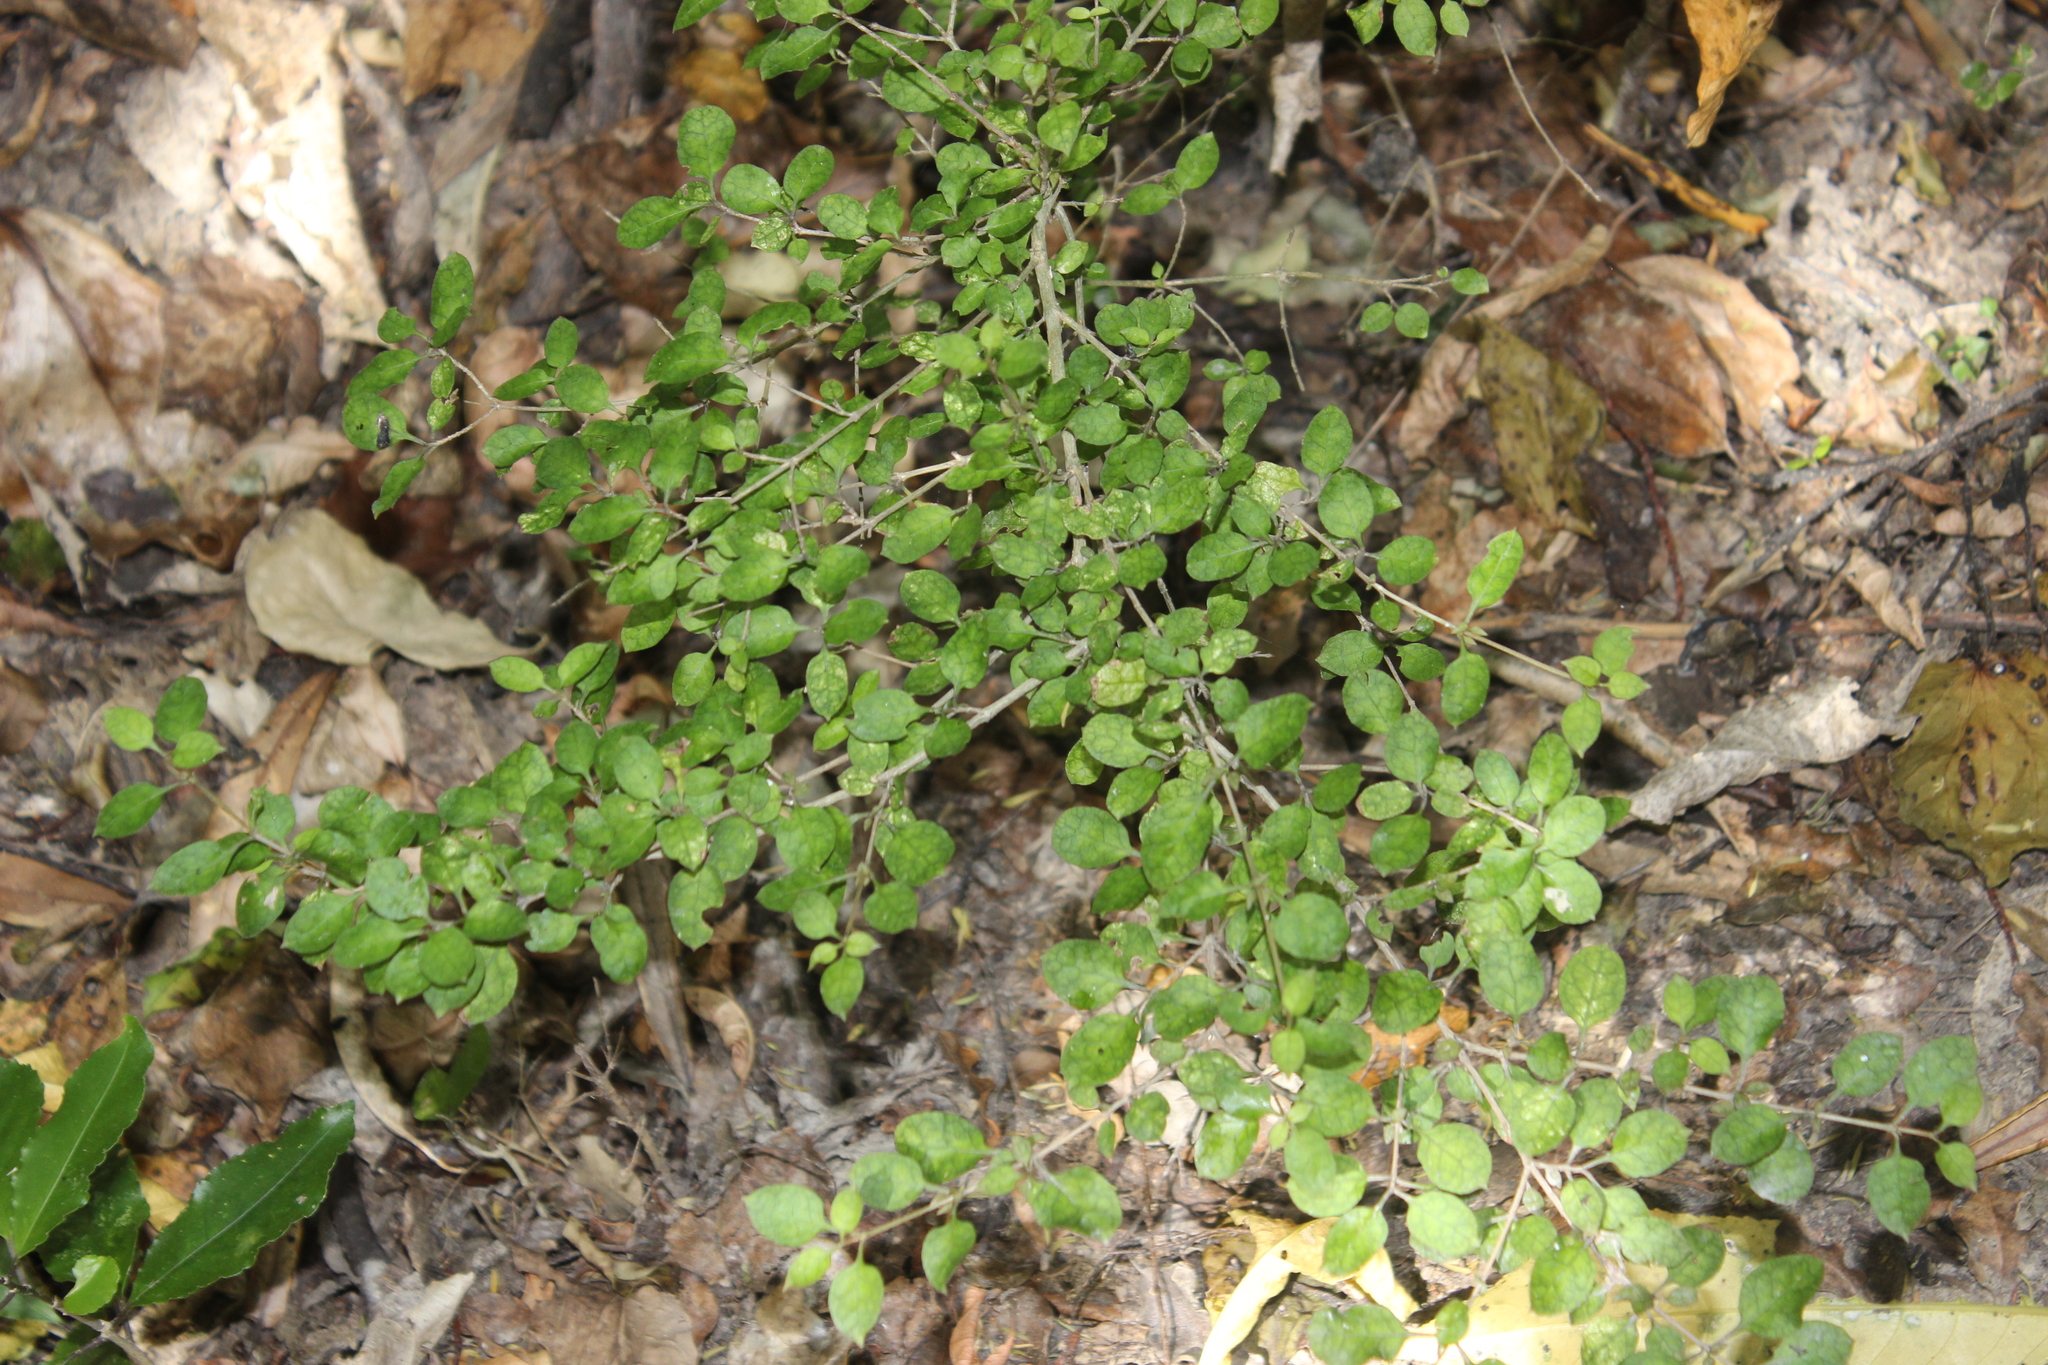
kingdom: Plantae
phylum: Tracheophyta
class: Magnoliopsida
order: Gentianales
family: Rubiaceae
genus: Coprosma
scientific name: Coprosma areolata
